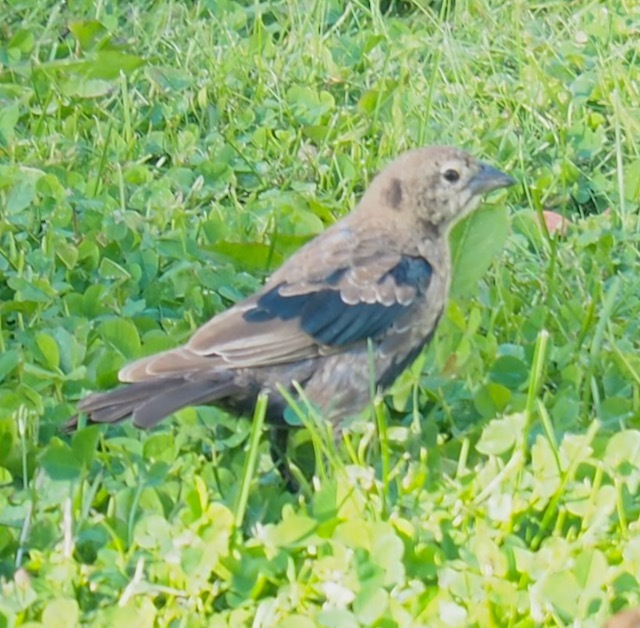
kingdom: Animalia
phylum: Chordata
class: Aves
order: Passeriformes
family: Icteridae
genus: Molothrus
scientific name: Molothrus ater
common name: Brown-headed cowbird
